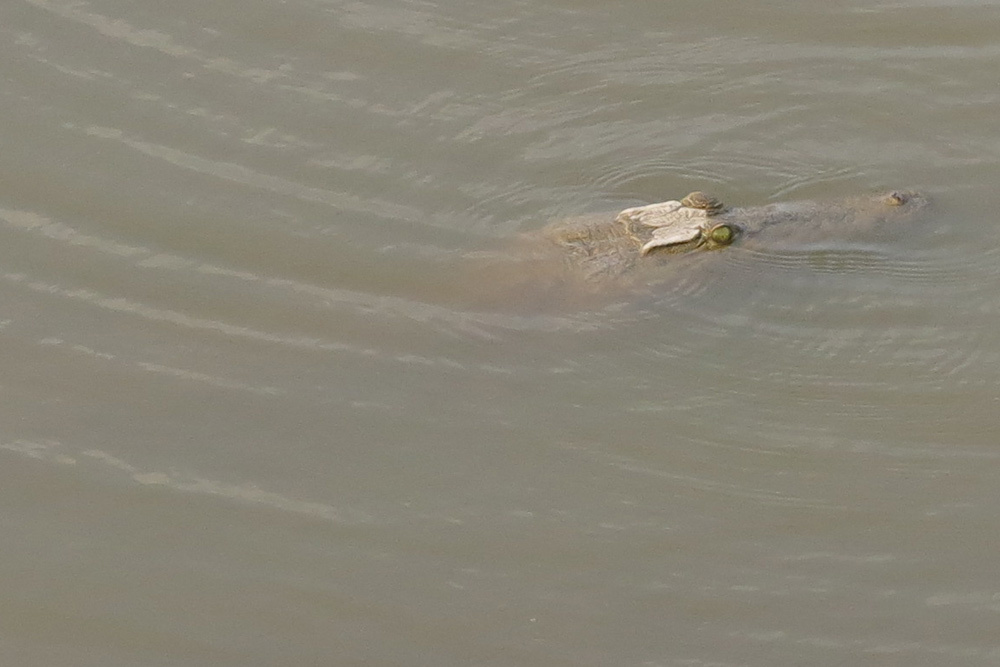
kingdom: Animalia
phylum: Chordata
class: Crocodylia
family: Crocodylidae
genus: Crocodylus
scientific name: Crocodylus niloticus
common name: Nile crocodile
